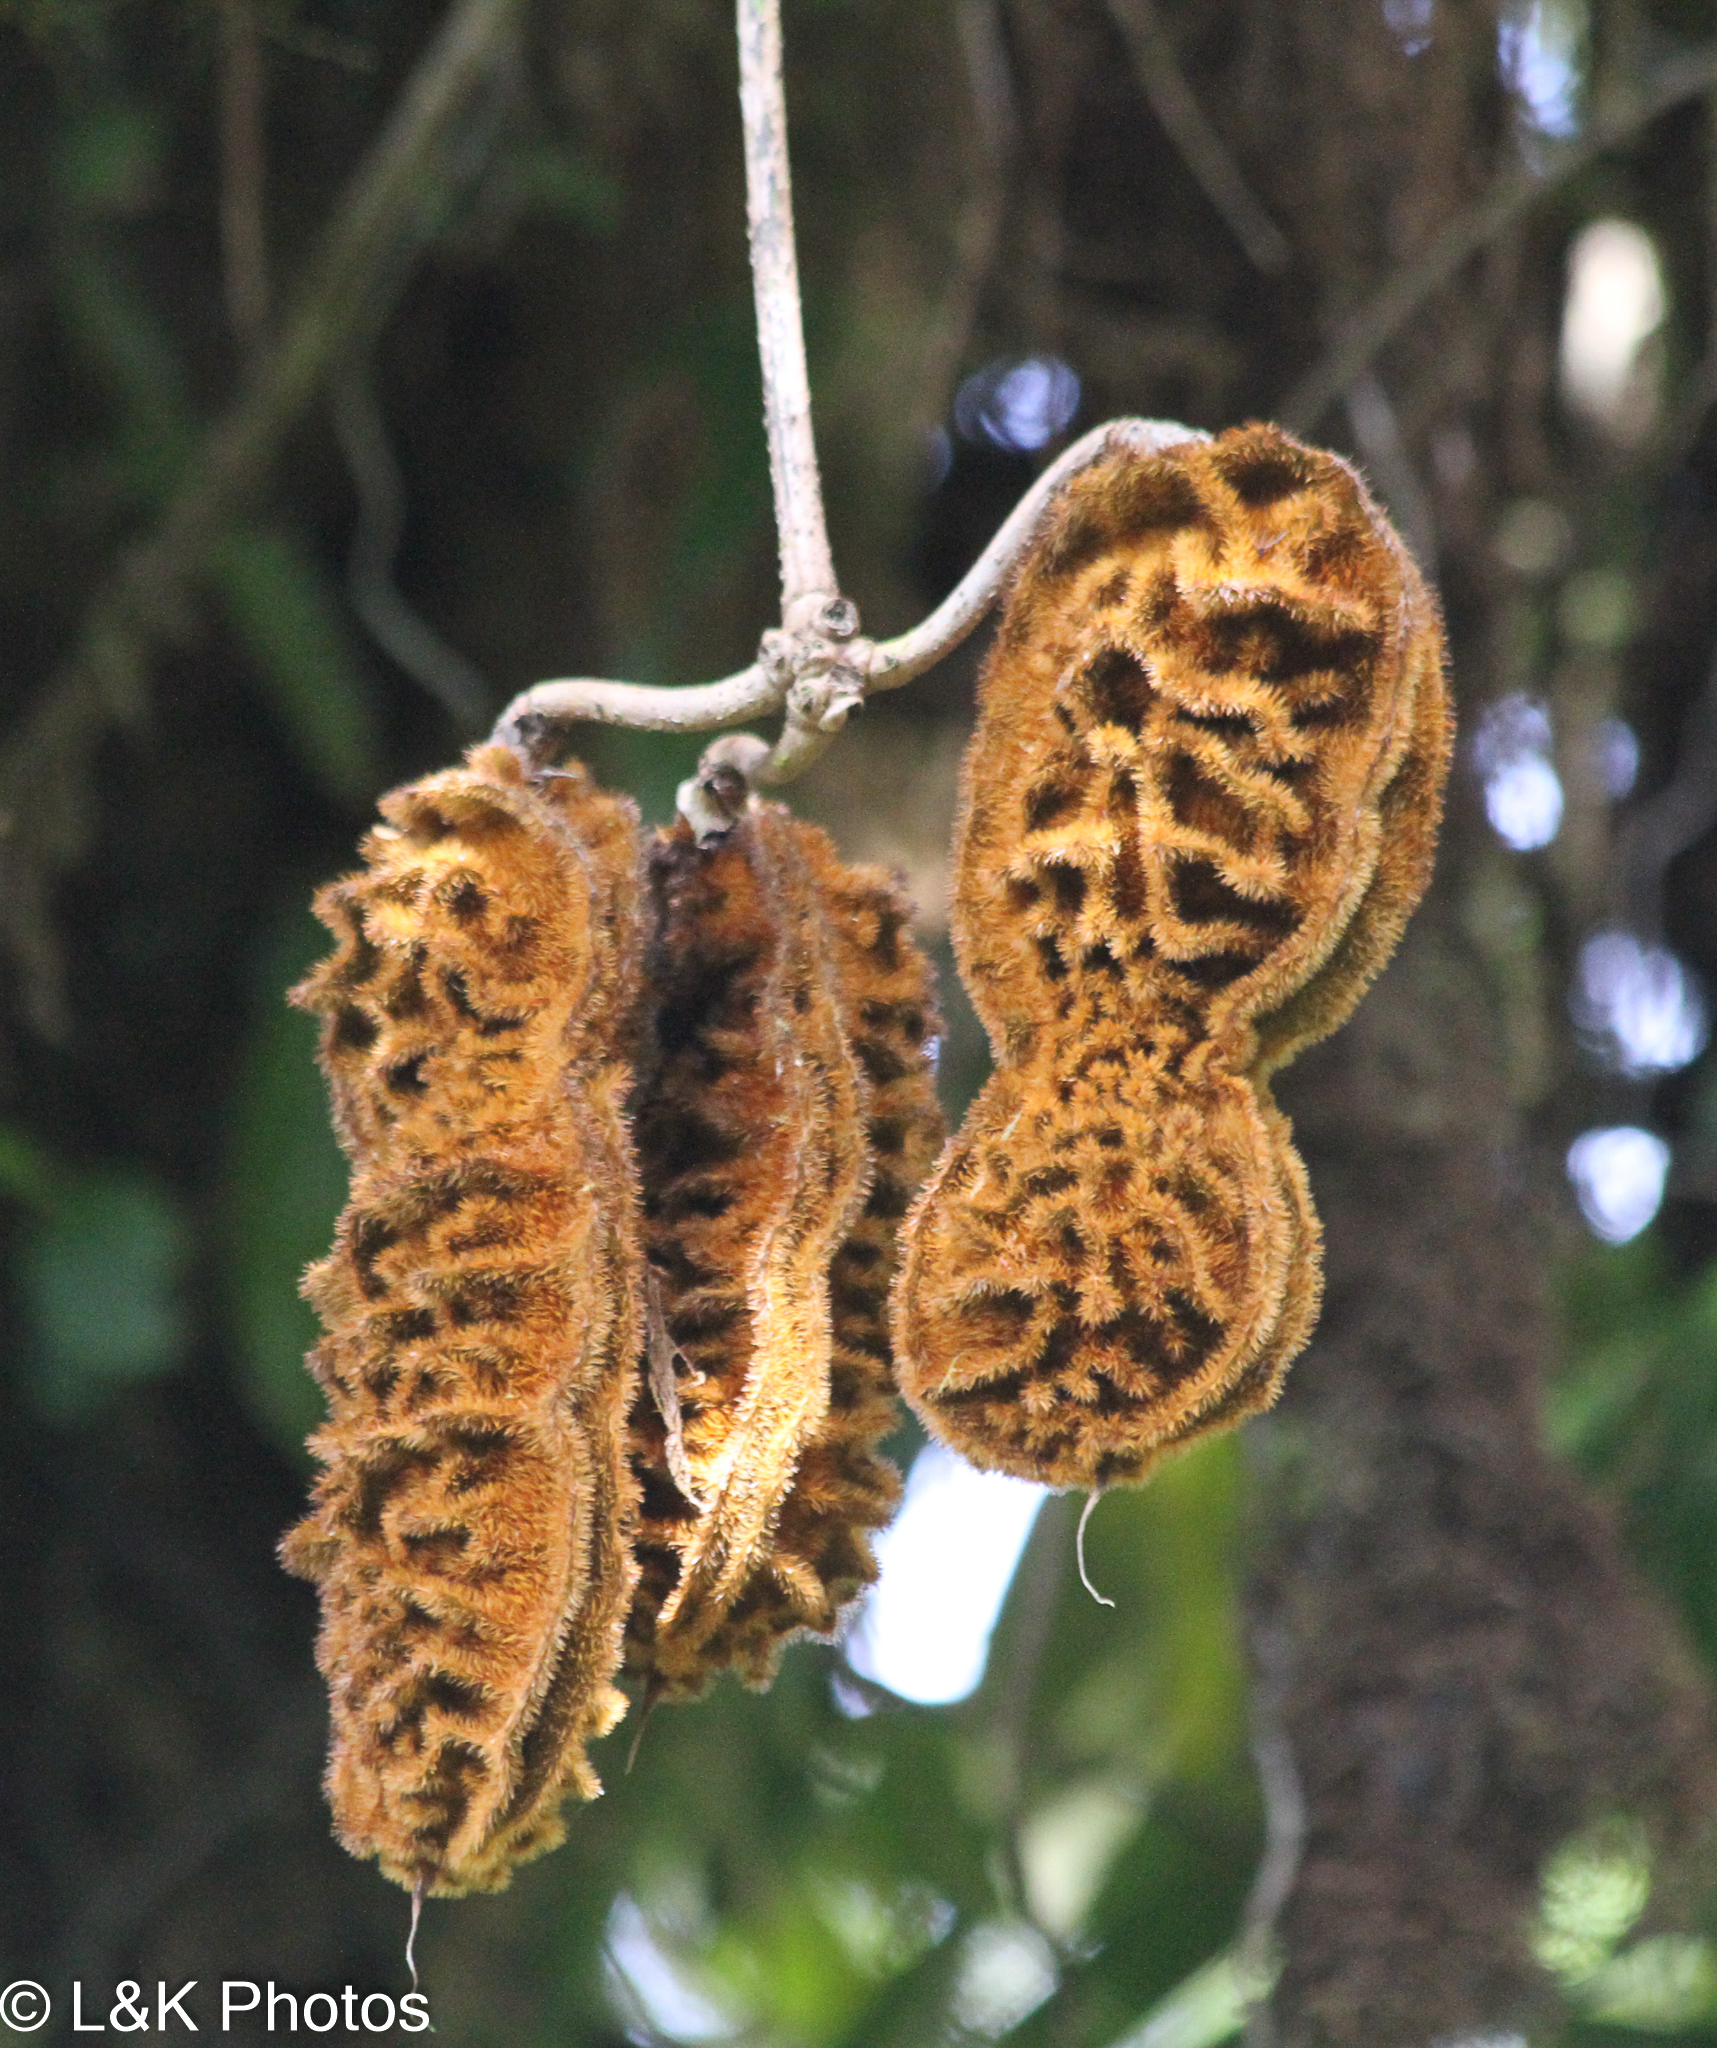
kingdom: Plantae
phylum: Tracheophyta
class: Magnoliopsida
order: Fabales
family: Fabaceae
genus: Mucuna
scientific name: Mucuna monticola
